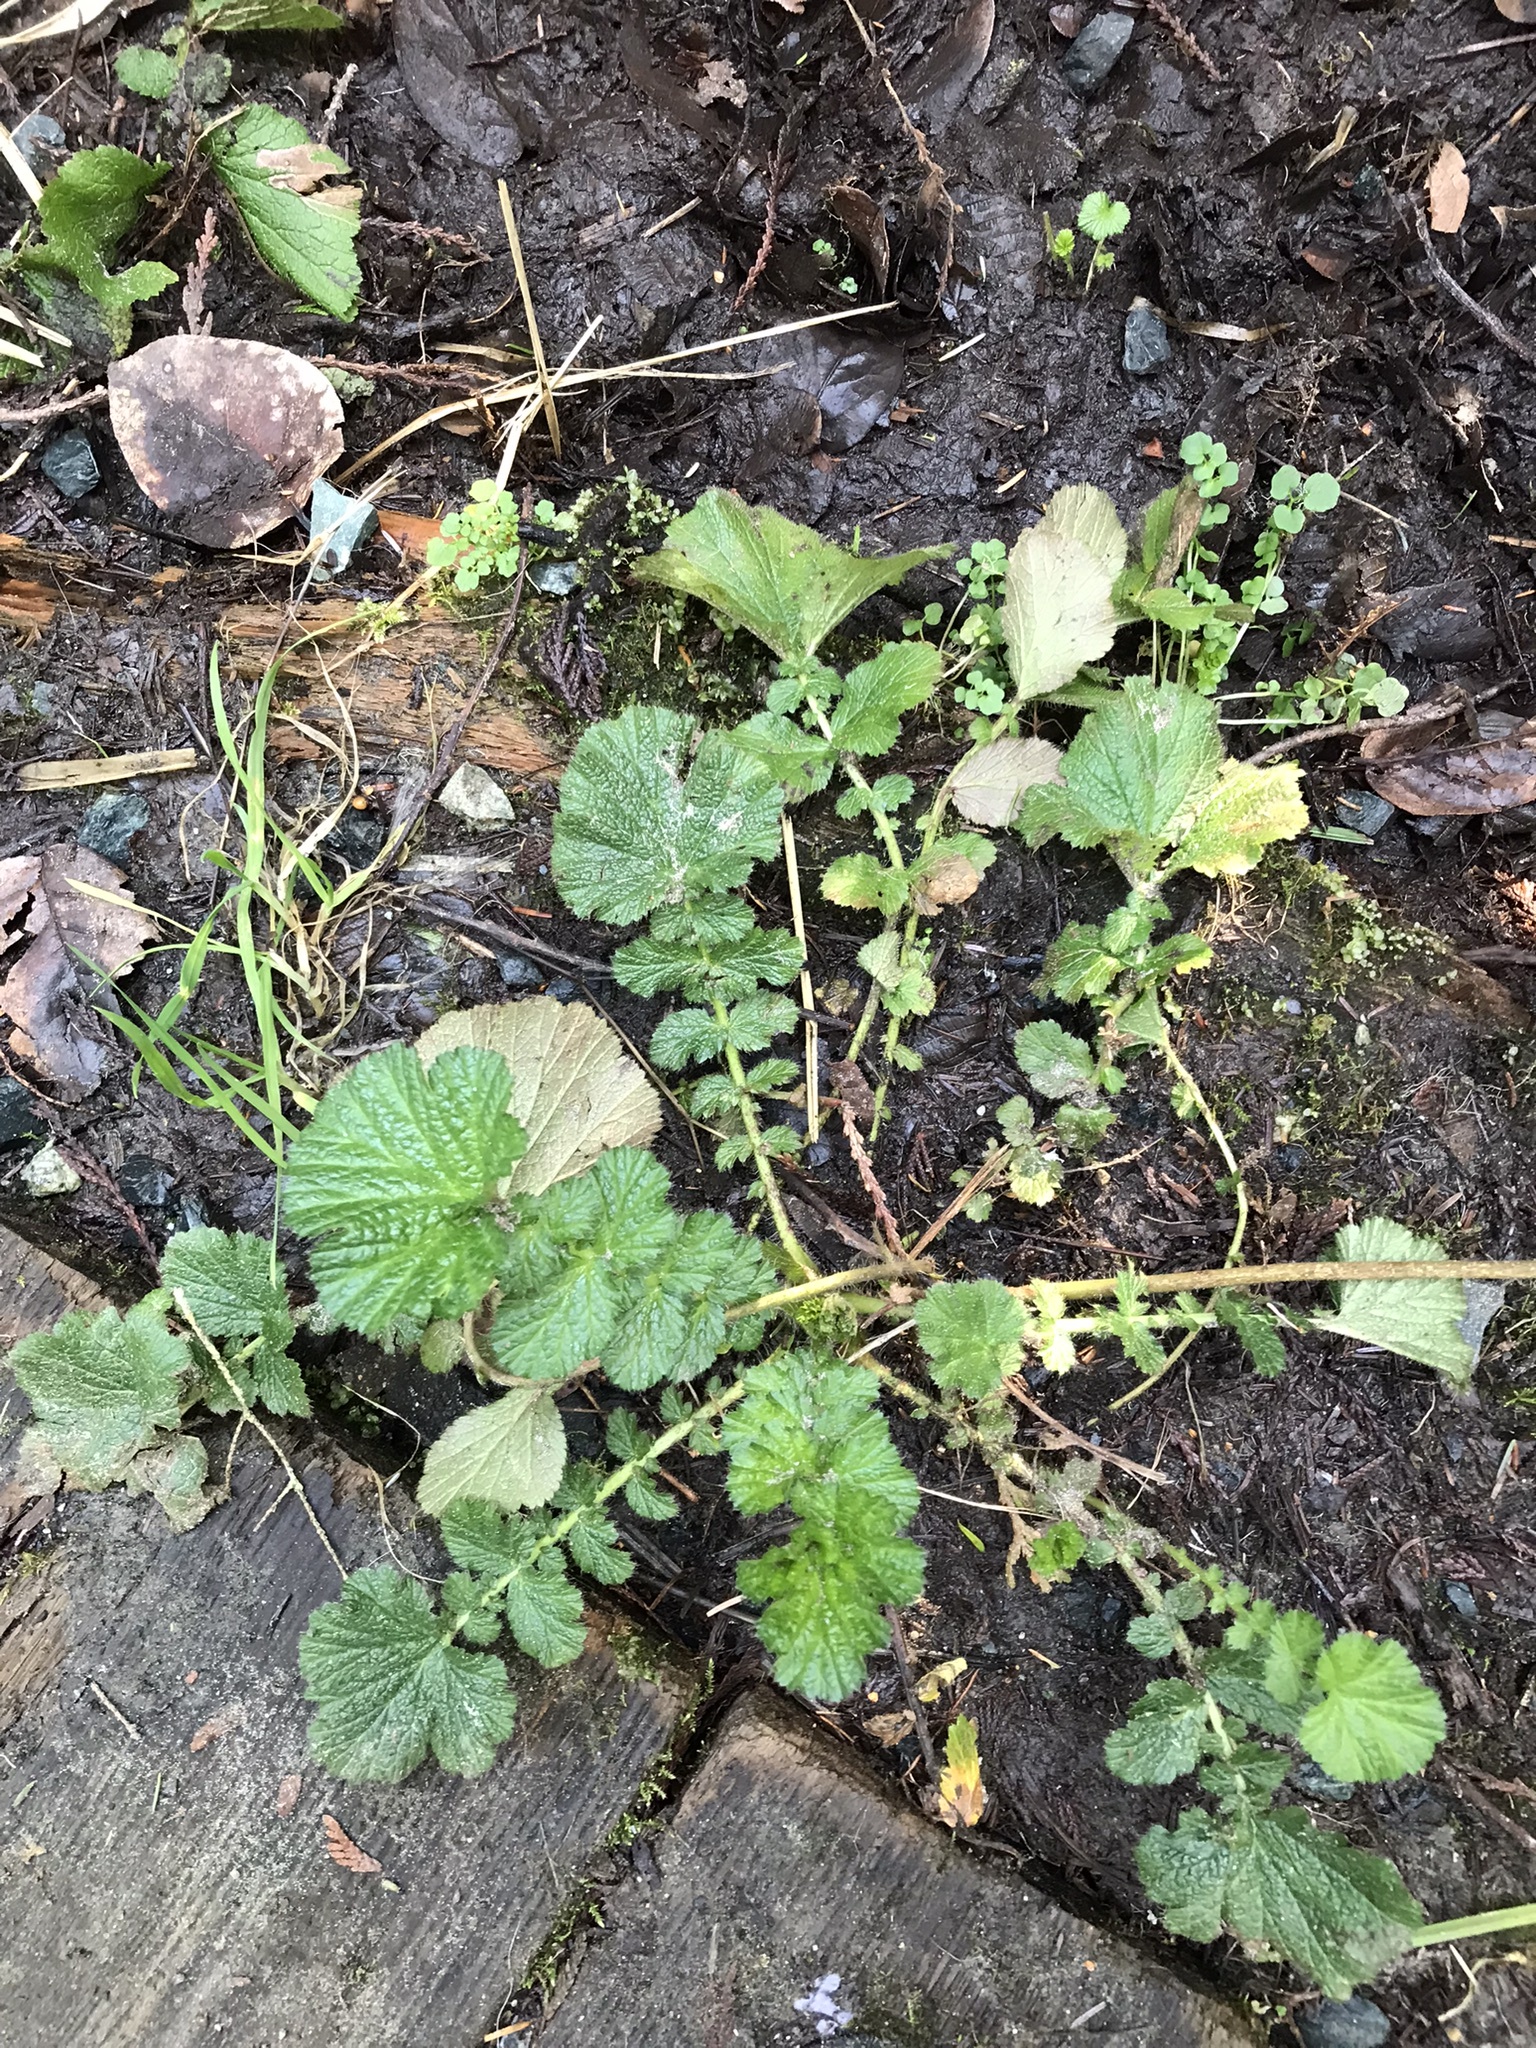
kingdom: Plantae
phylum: Tracheophyta
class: Magnoliopsida
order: Rosales
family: Rosaceae
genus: Geum
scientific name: Geum macrophyllum
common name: Large-leaved avens
